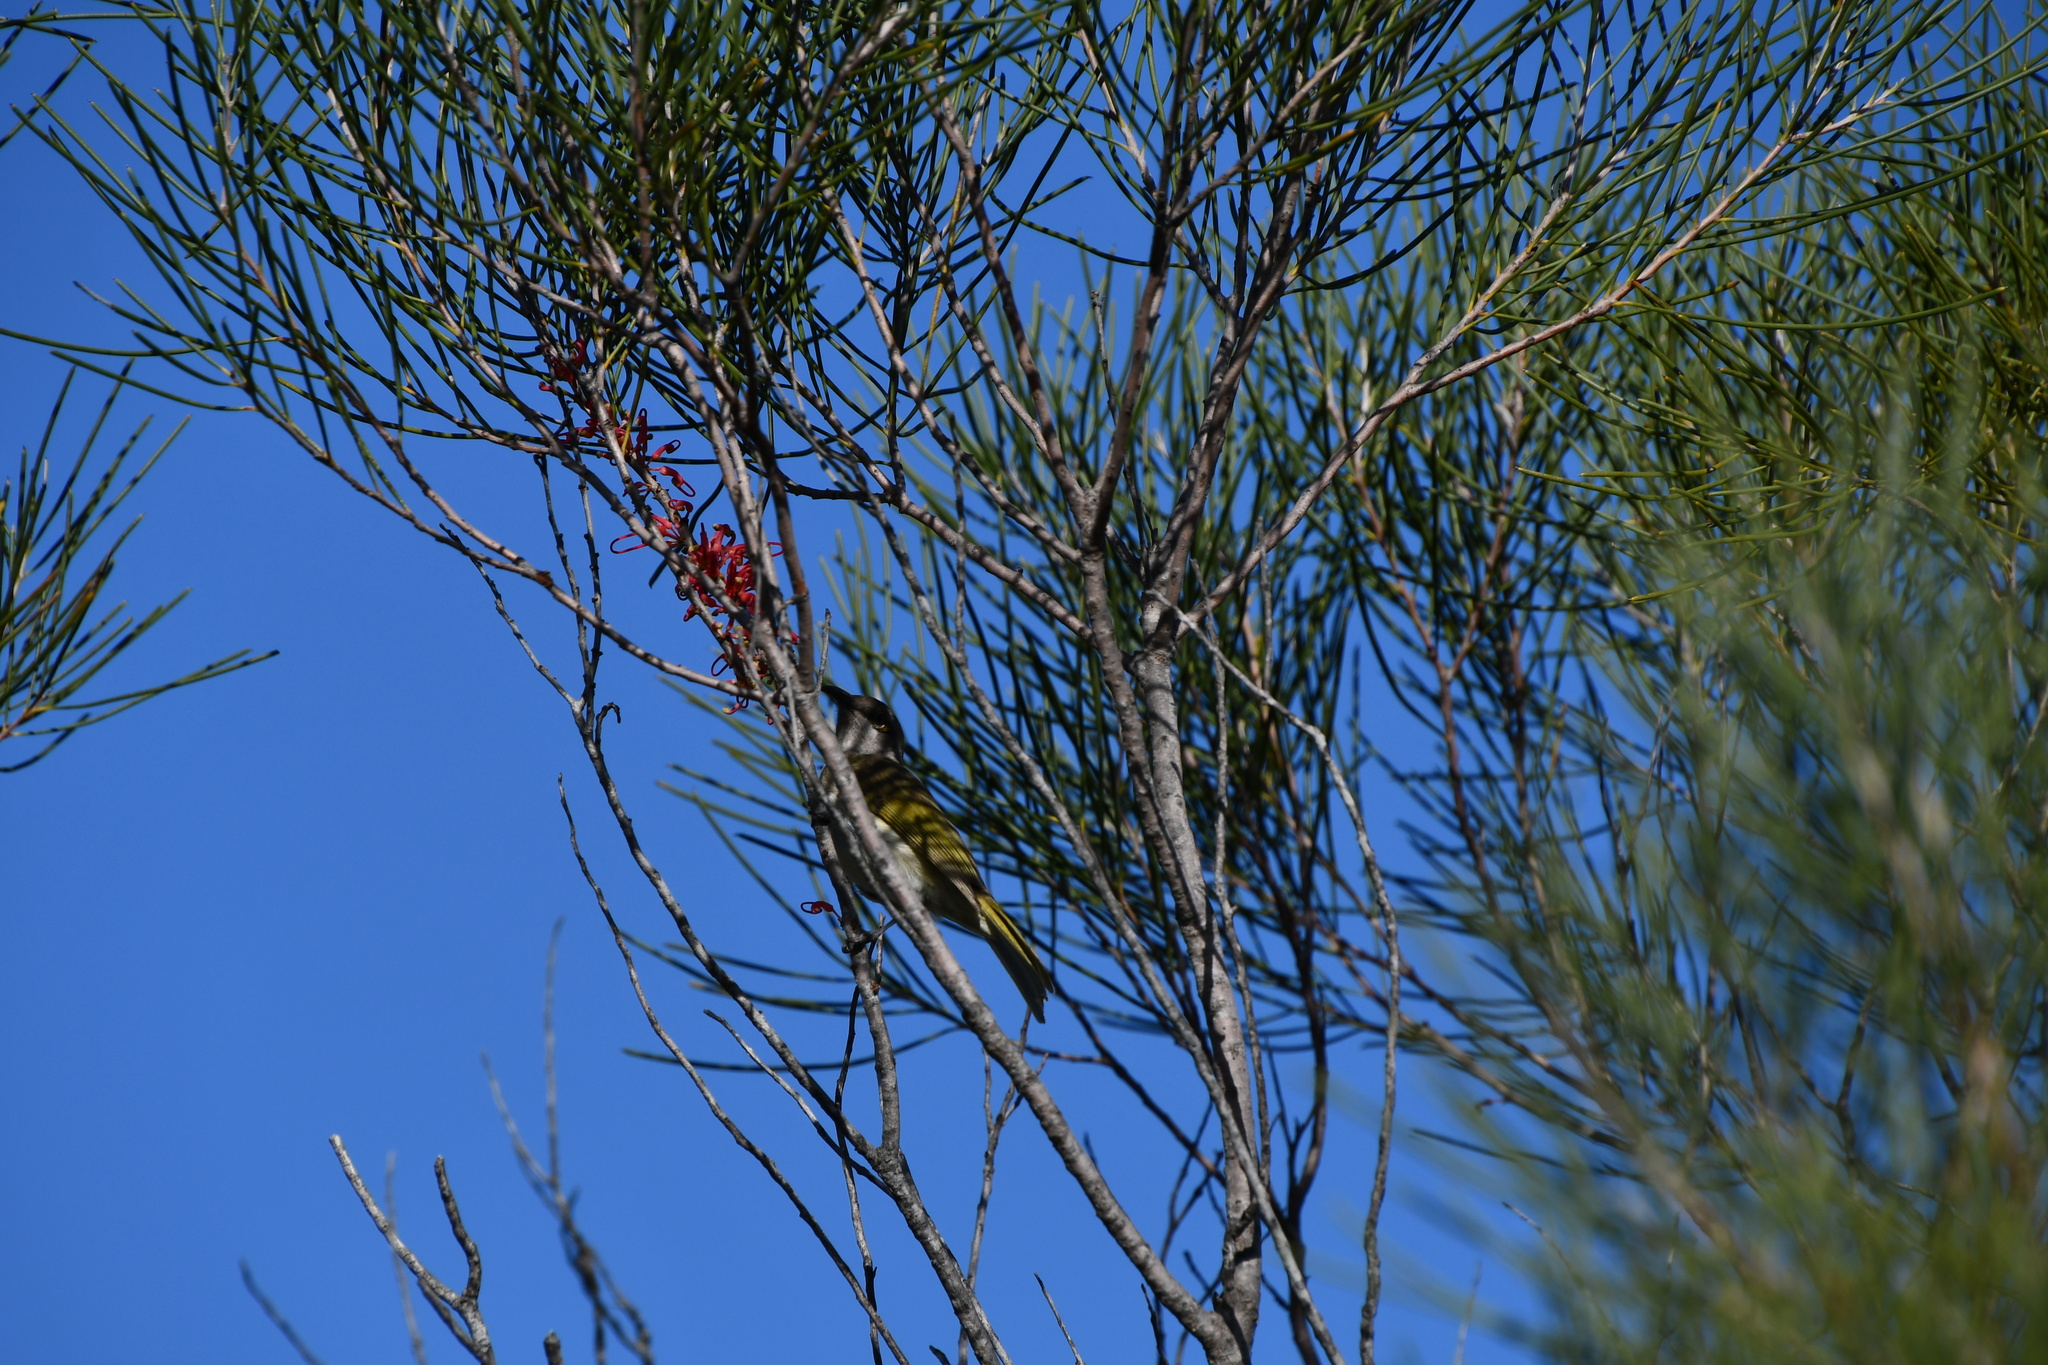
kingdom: Animalia
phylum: Chordata
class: Aves
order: Passeriformes
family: Meliphagidae
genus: Lichmera
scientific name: Lichmera indistincta
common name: Brown honeyeater
